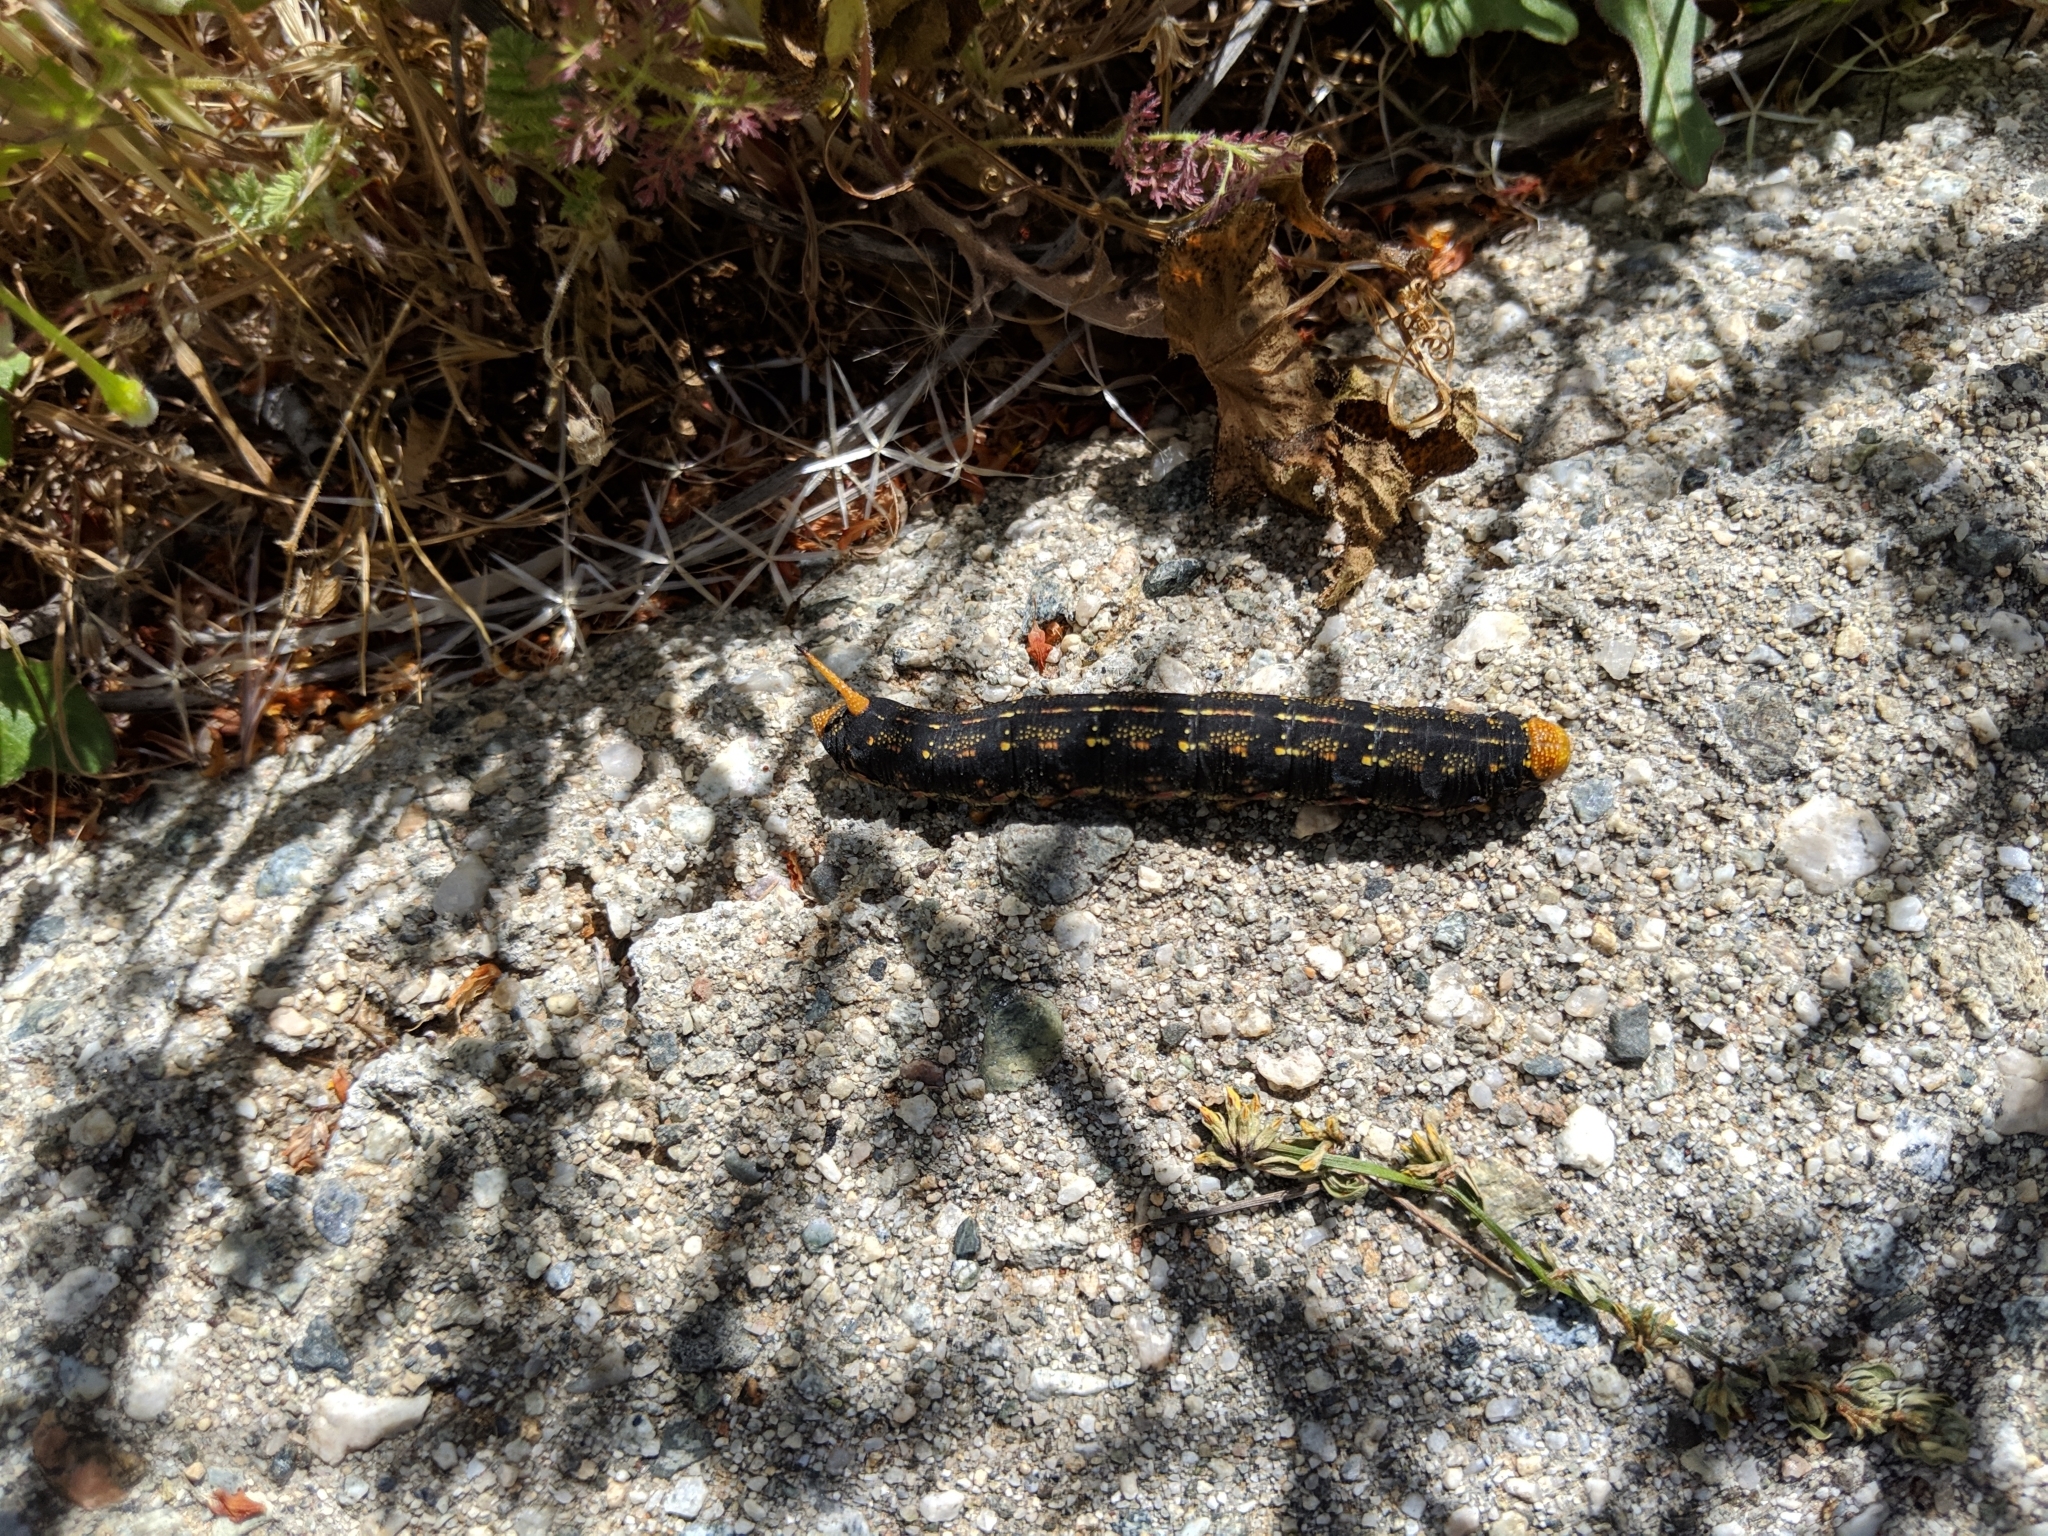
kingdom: Animalia
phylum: Arthropoda
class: Insecta
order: Lepidoptera
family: Sphingidae
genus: Hyles
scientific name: Hyles lineata
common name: White-lined sphinx
